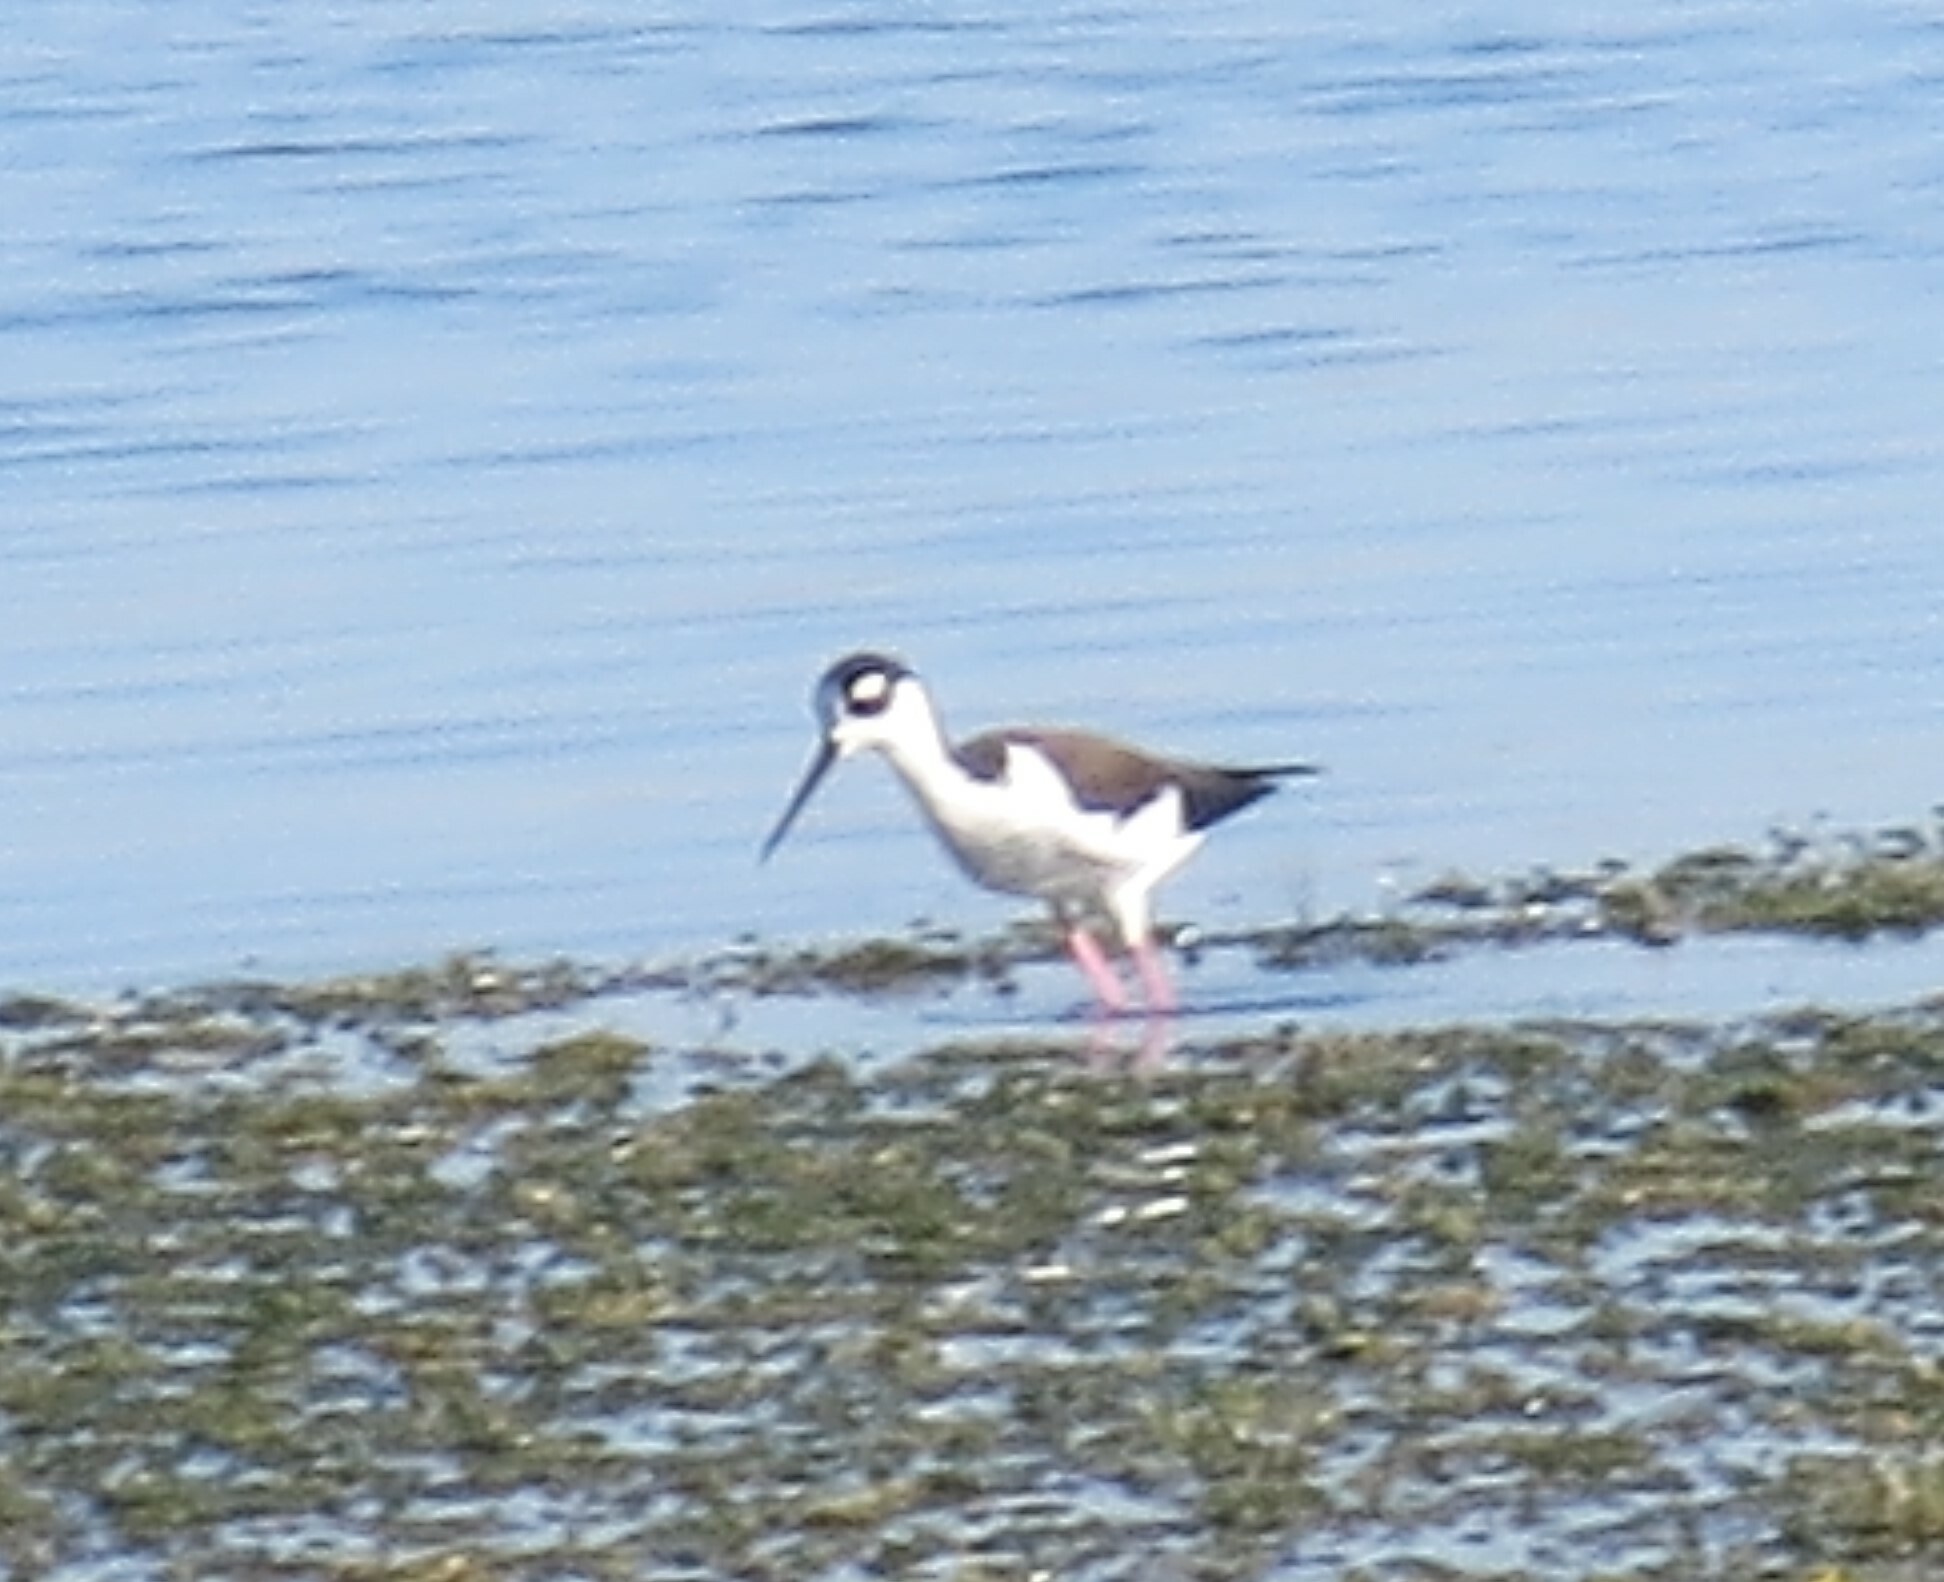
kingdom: Animalia
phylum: Chordata
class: Aves
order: Charadriiformes
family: Recurvirostridae
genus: Himantopus
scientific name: Himantopus mexicanus
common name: Black-necked stilt
